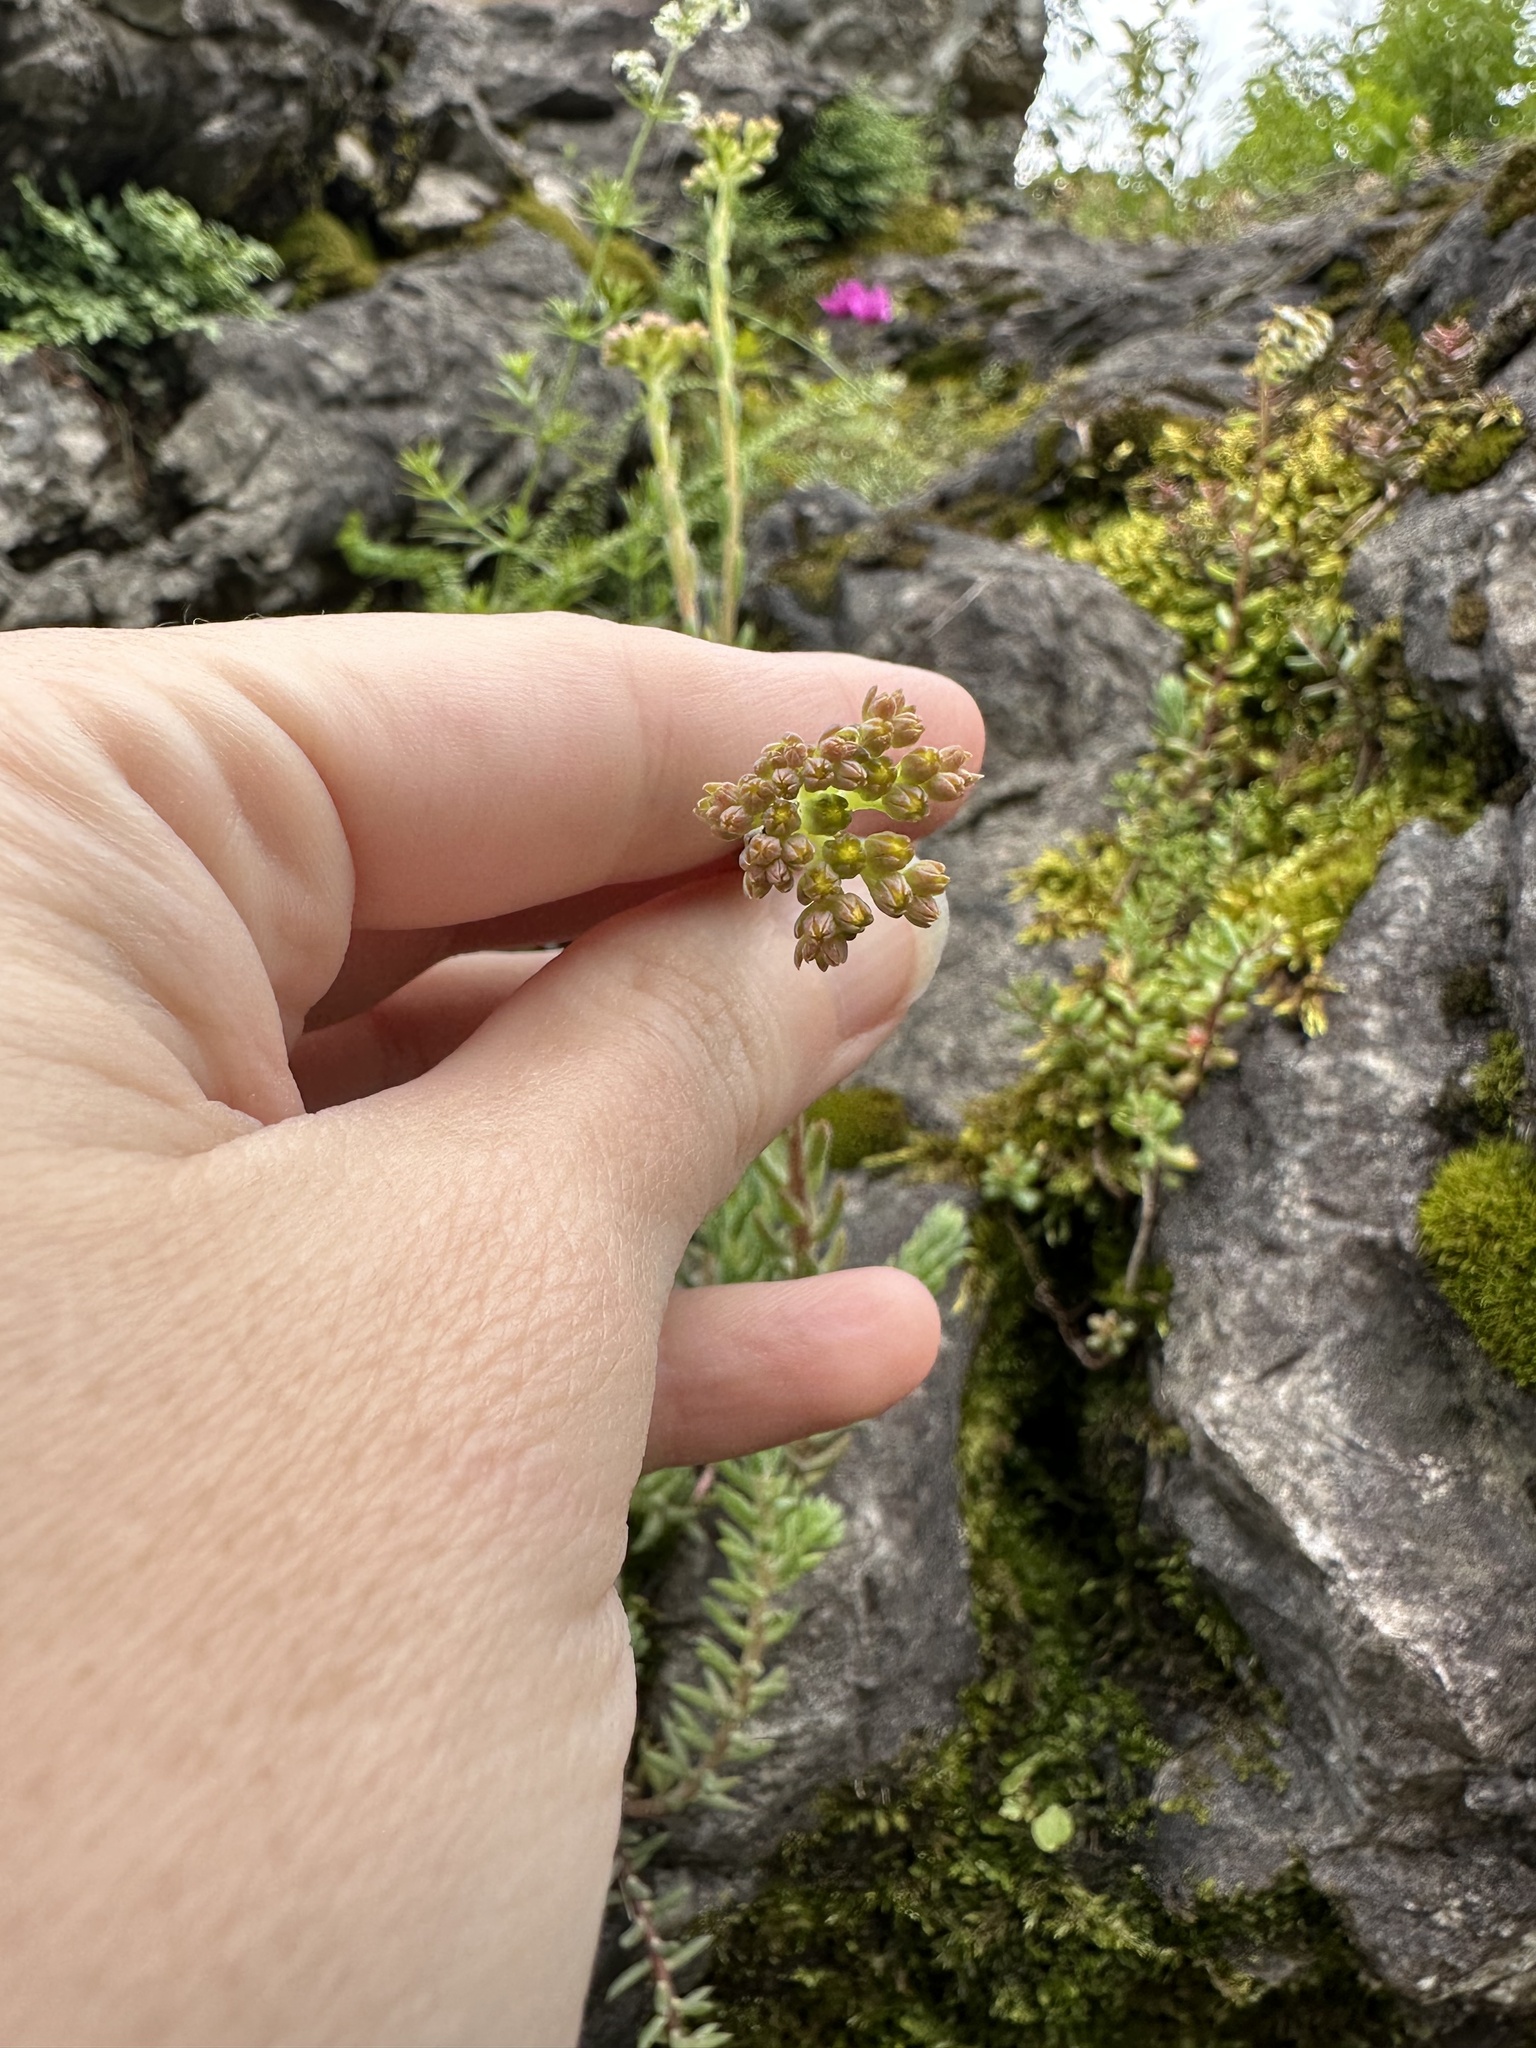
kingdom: Plantae
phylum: Tracheophyta
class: Magnoliopsida
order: Saxifragales
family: Crassulaceae
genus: Petrosedum
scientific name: Petrosedum montanum
